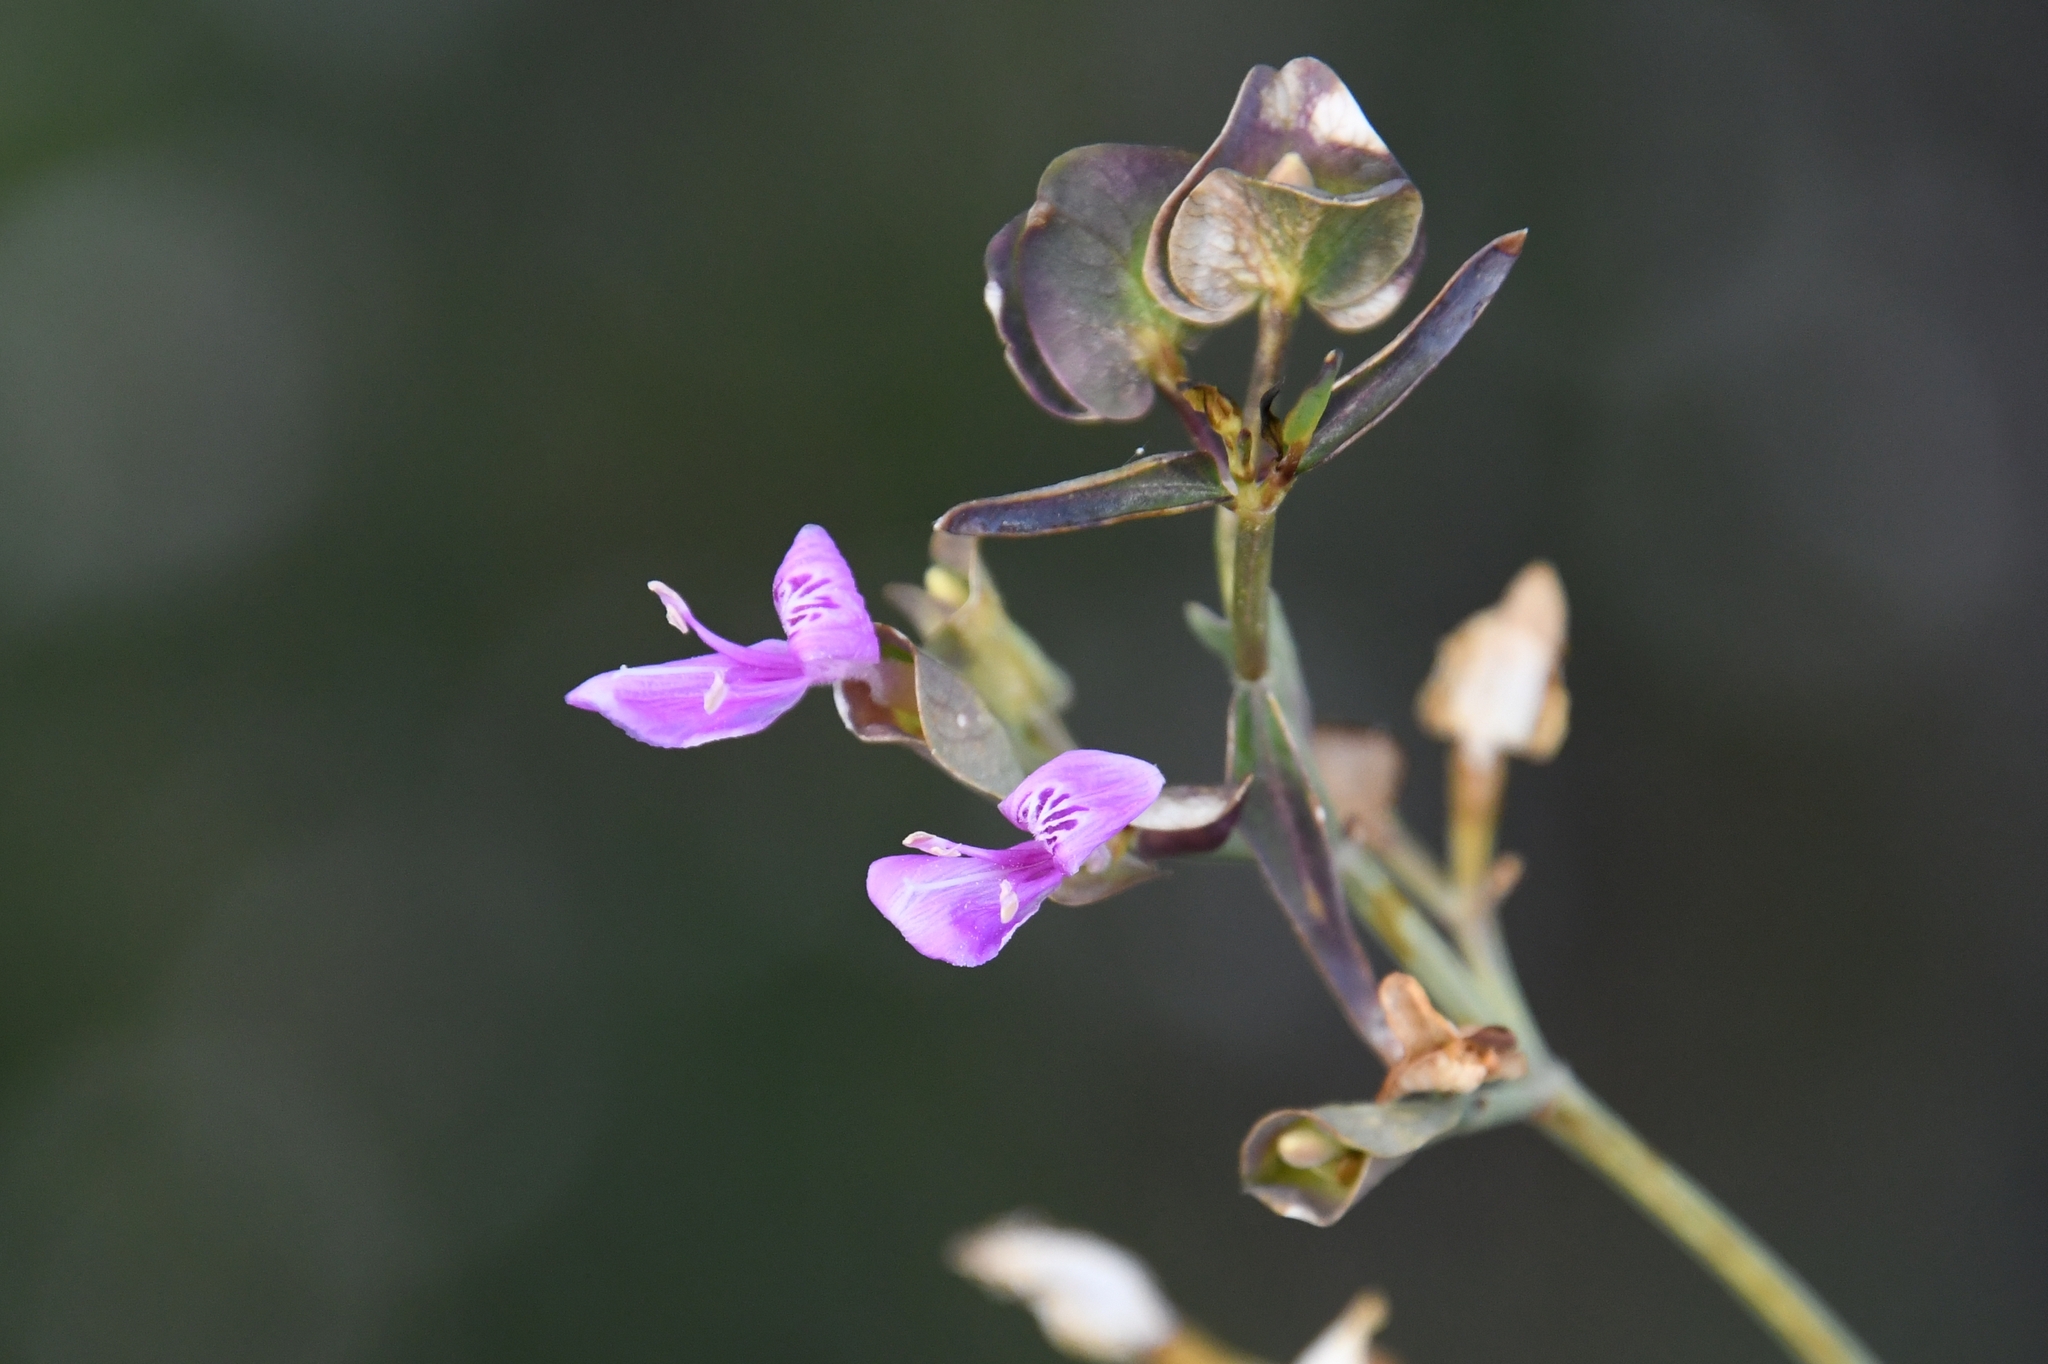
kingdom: Plantae
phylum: Tracheophyta
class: Magnoliopsida
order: Lamiales
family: Acanthaceae
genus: Dicliptera
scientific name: Dicliptera resupinata
